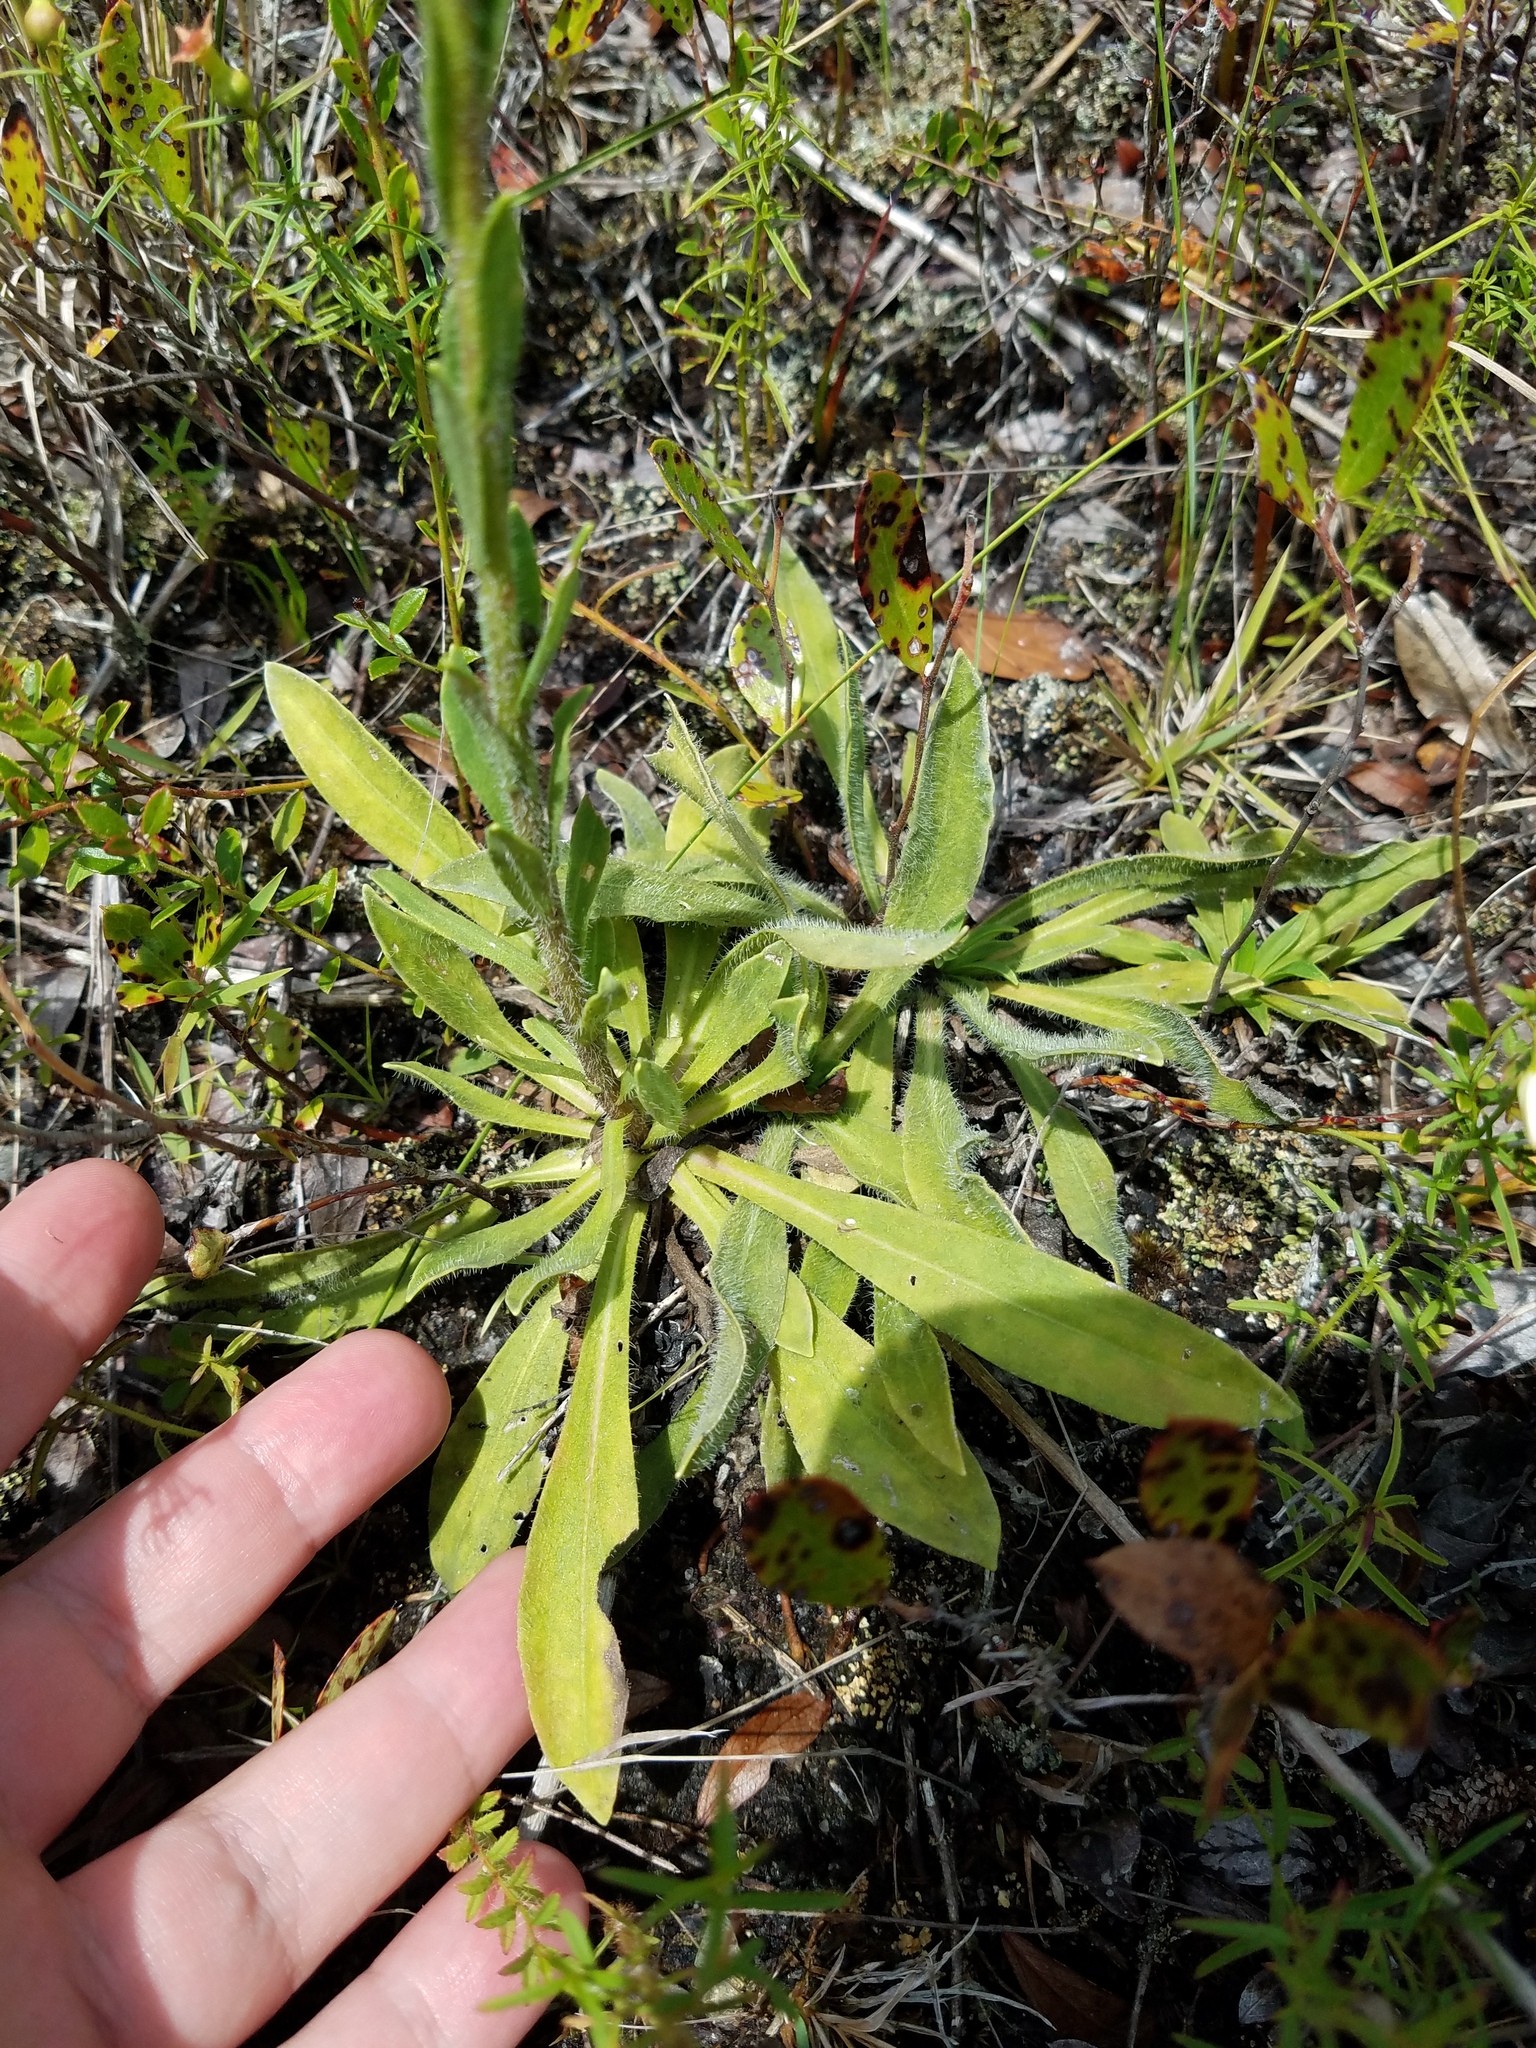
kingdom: Plantae
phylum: Tracheophyta
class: Magnoliopsida
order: Asterales
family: Asteraceae
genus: Carphephorus
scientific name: Carphephorus tomentosus
